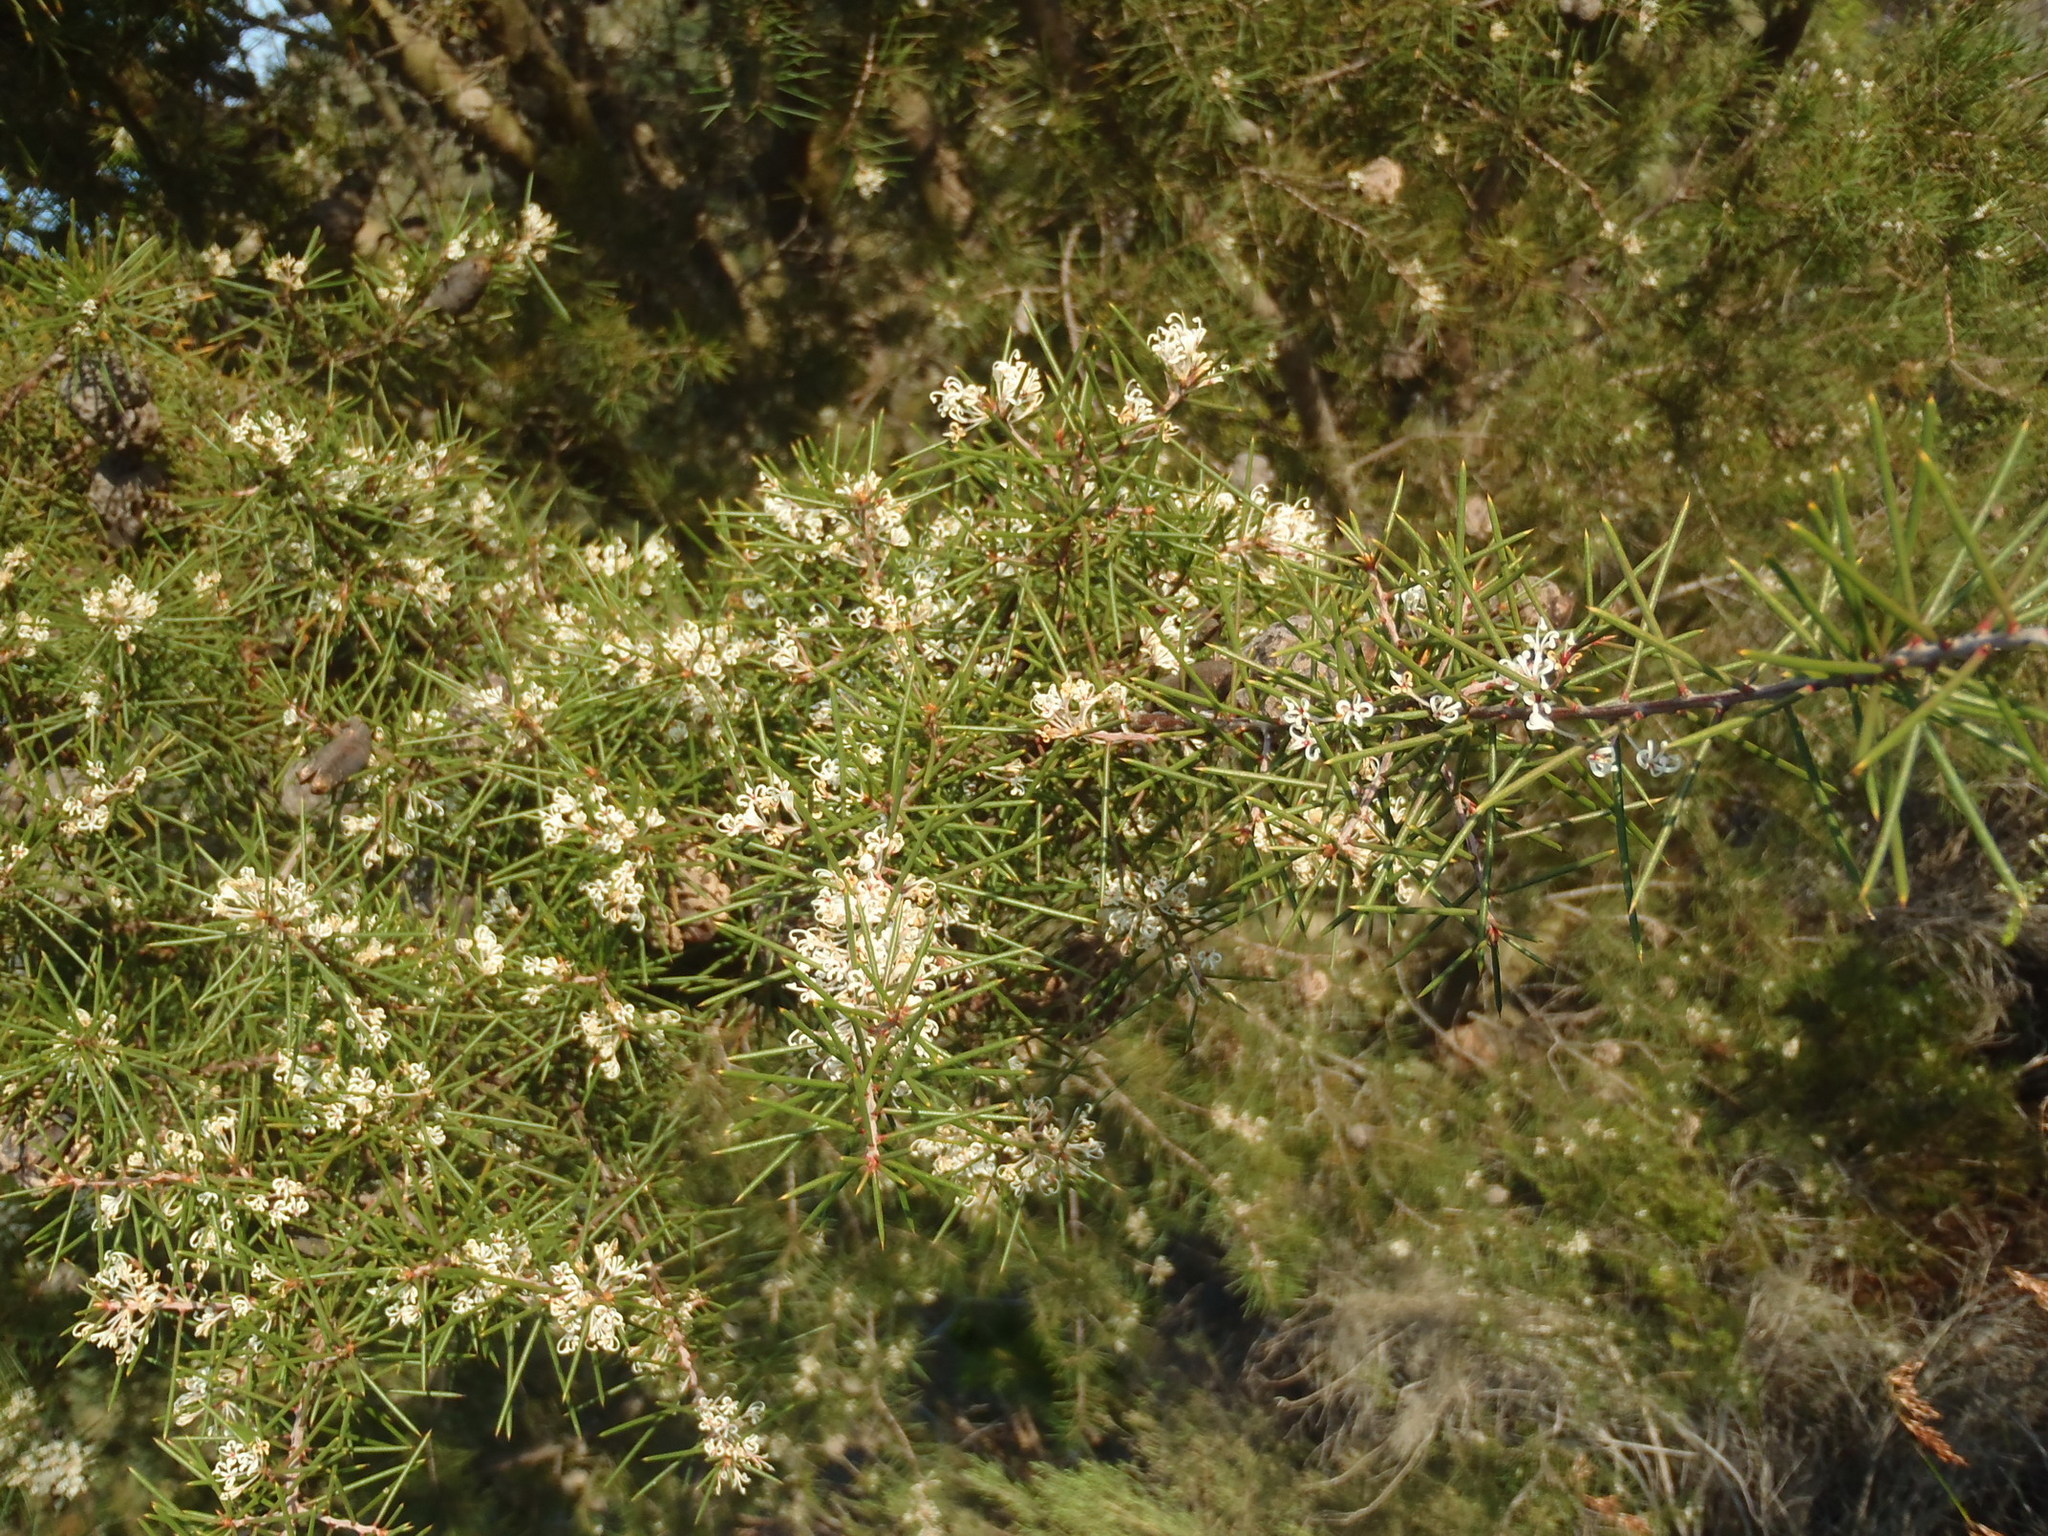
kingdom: Plantae
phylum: Tracheophyta
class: Magnoliopsida
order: Proteales
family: Proteaceae
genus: Hakea
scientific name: Hakea sericea
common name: Needle bush
